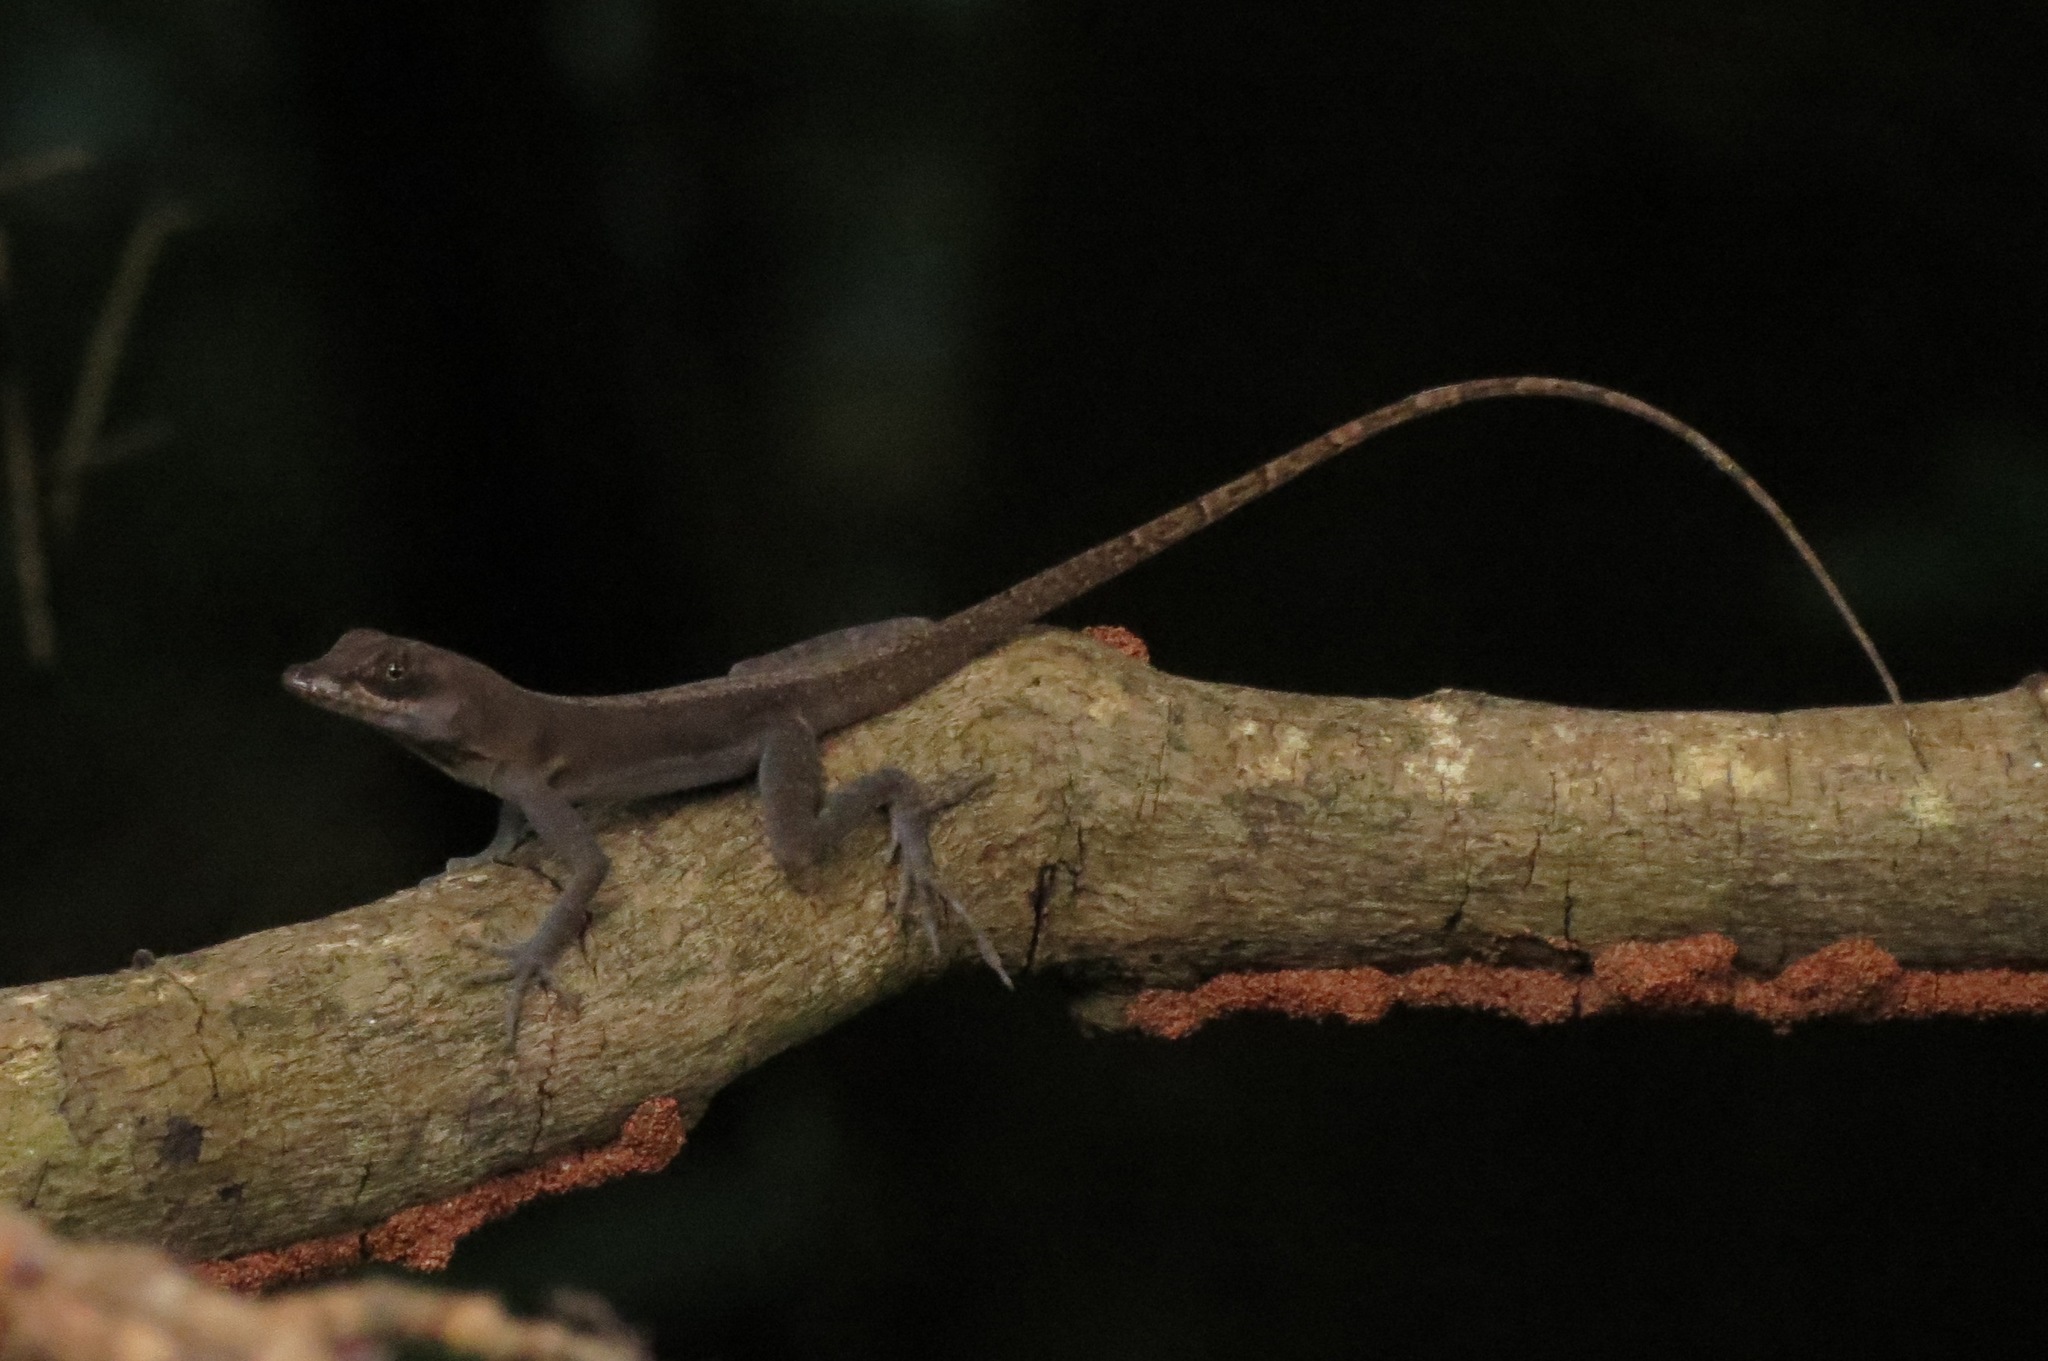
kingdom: Animalia
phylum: Chordata
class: Squamata
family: Dactyloidae
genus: Anolis
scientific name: Anolis richardii
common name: Grenada tree anole
